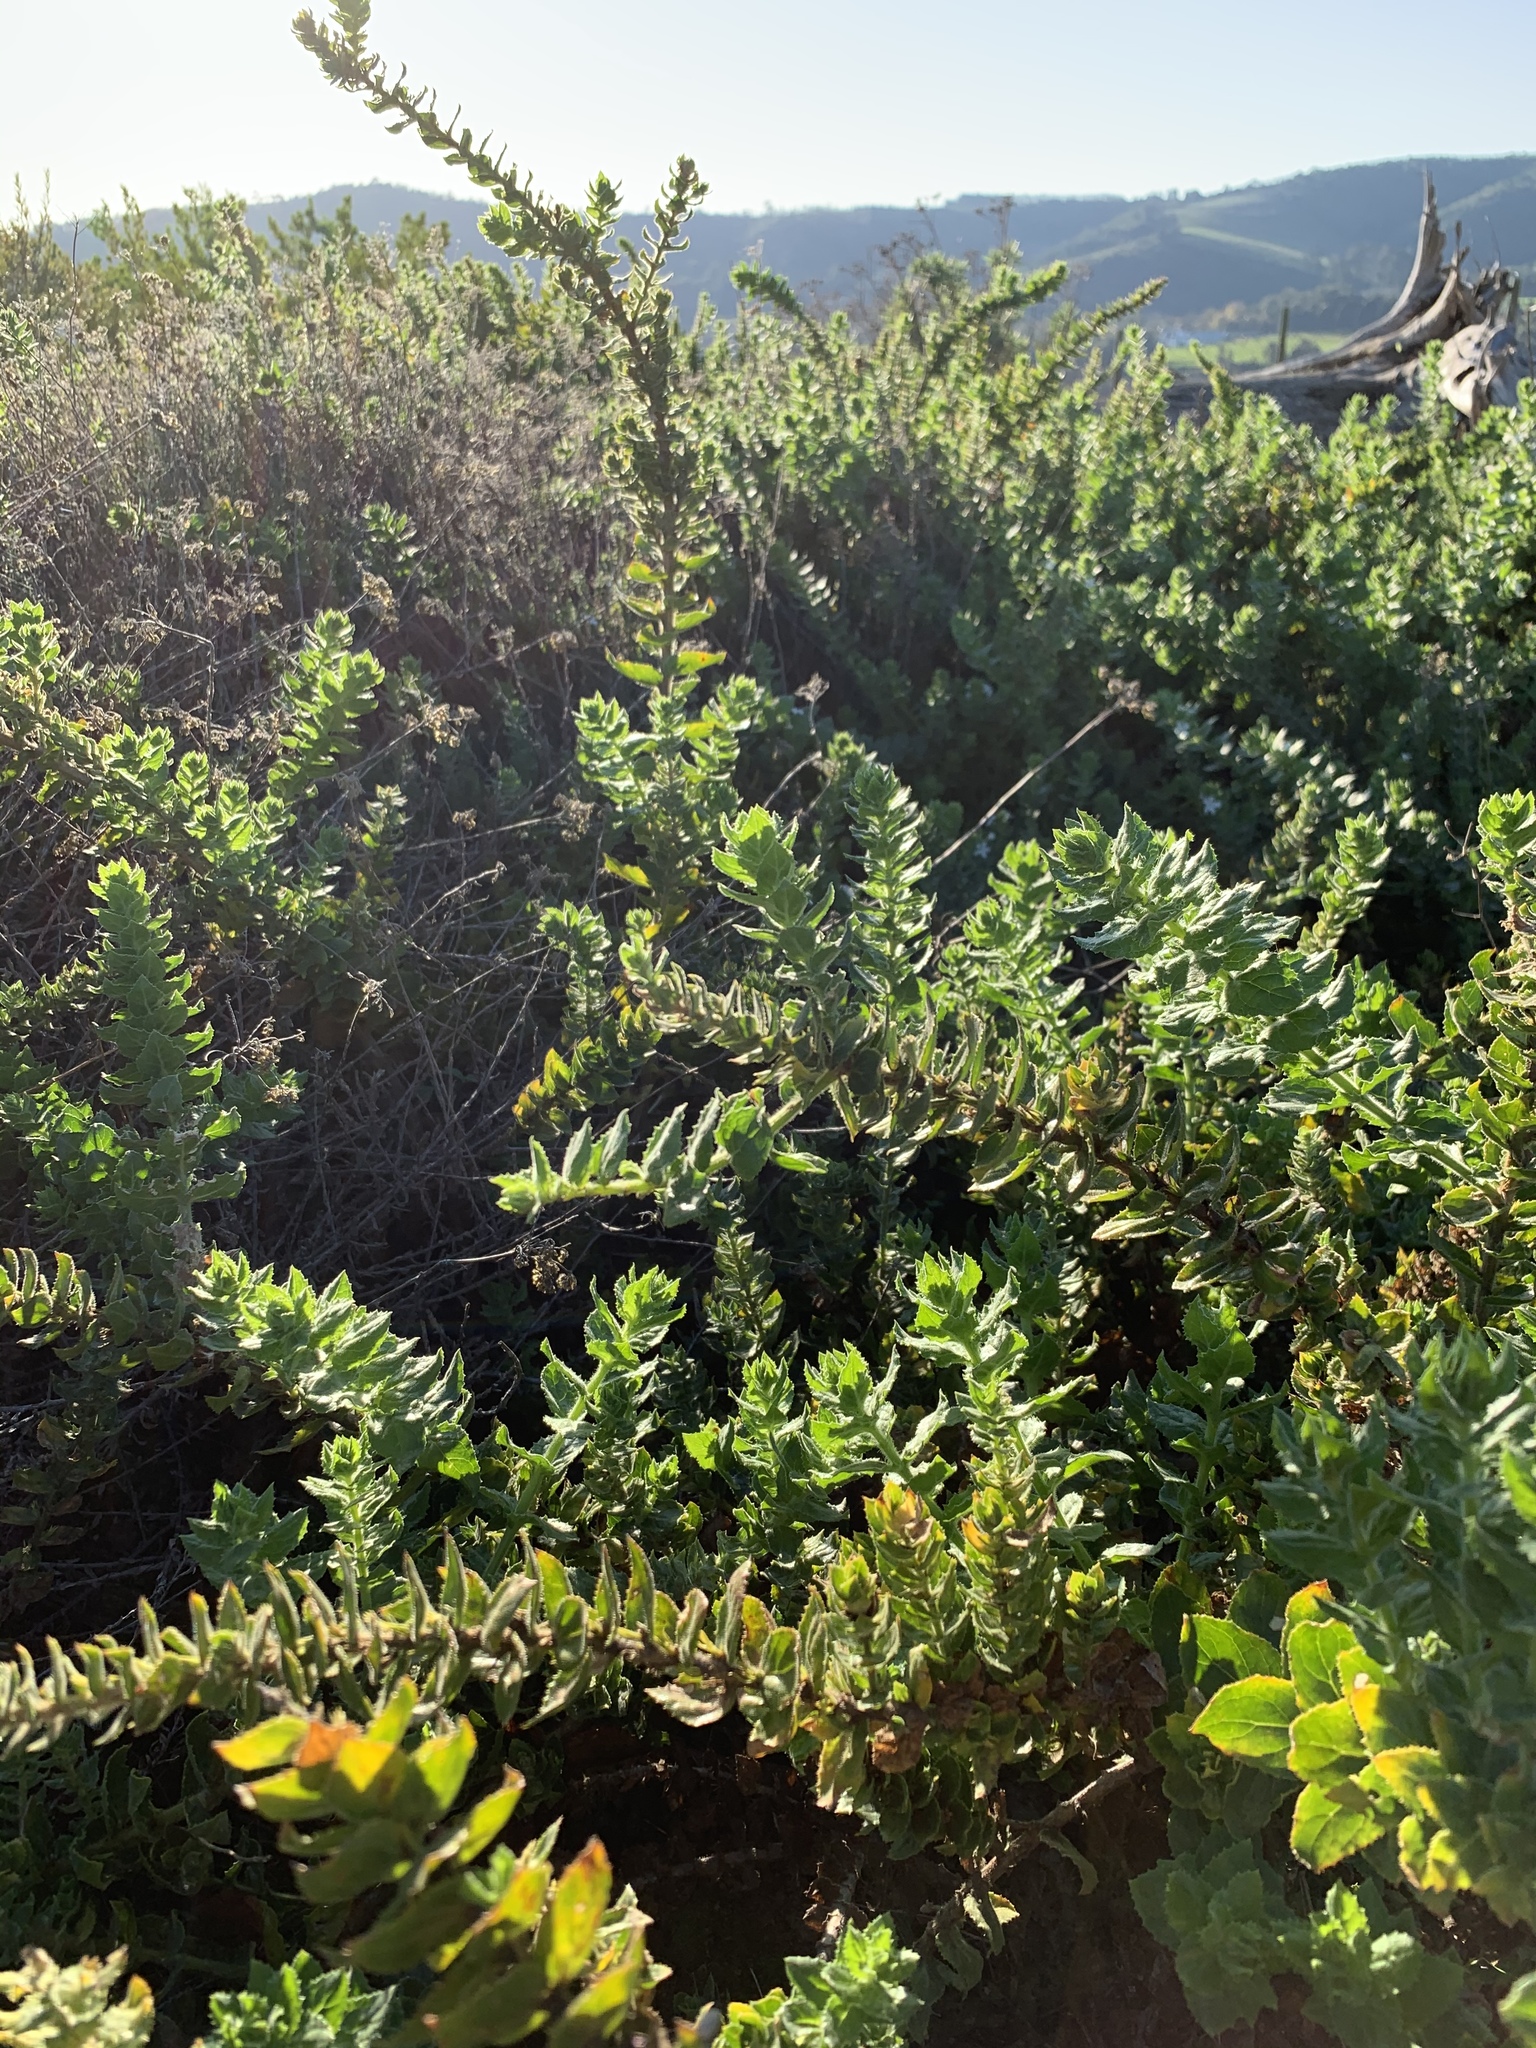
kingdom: Plantae
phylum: Tracheophyta
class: Magnoliopsida
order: Lamiales
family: Scrophulariaceae
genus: Oftia
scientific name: Oftia africana
